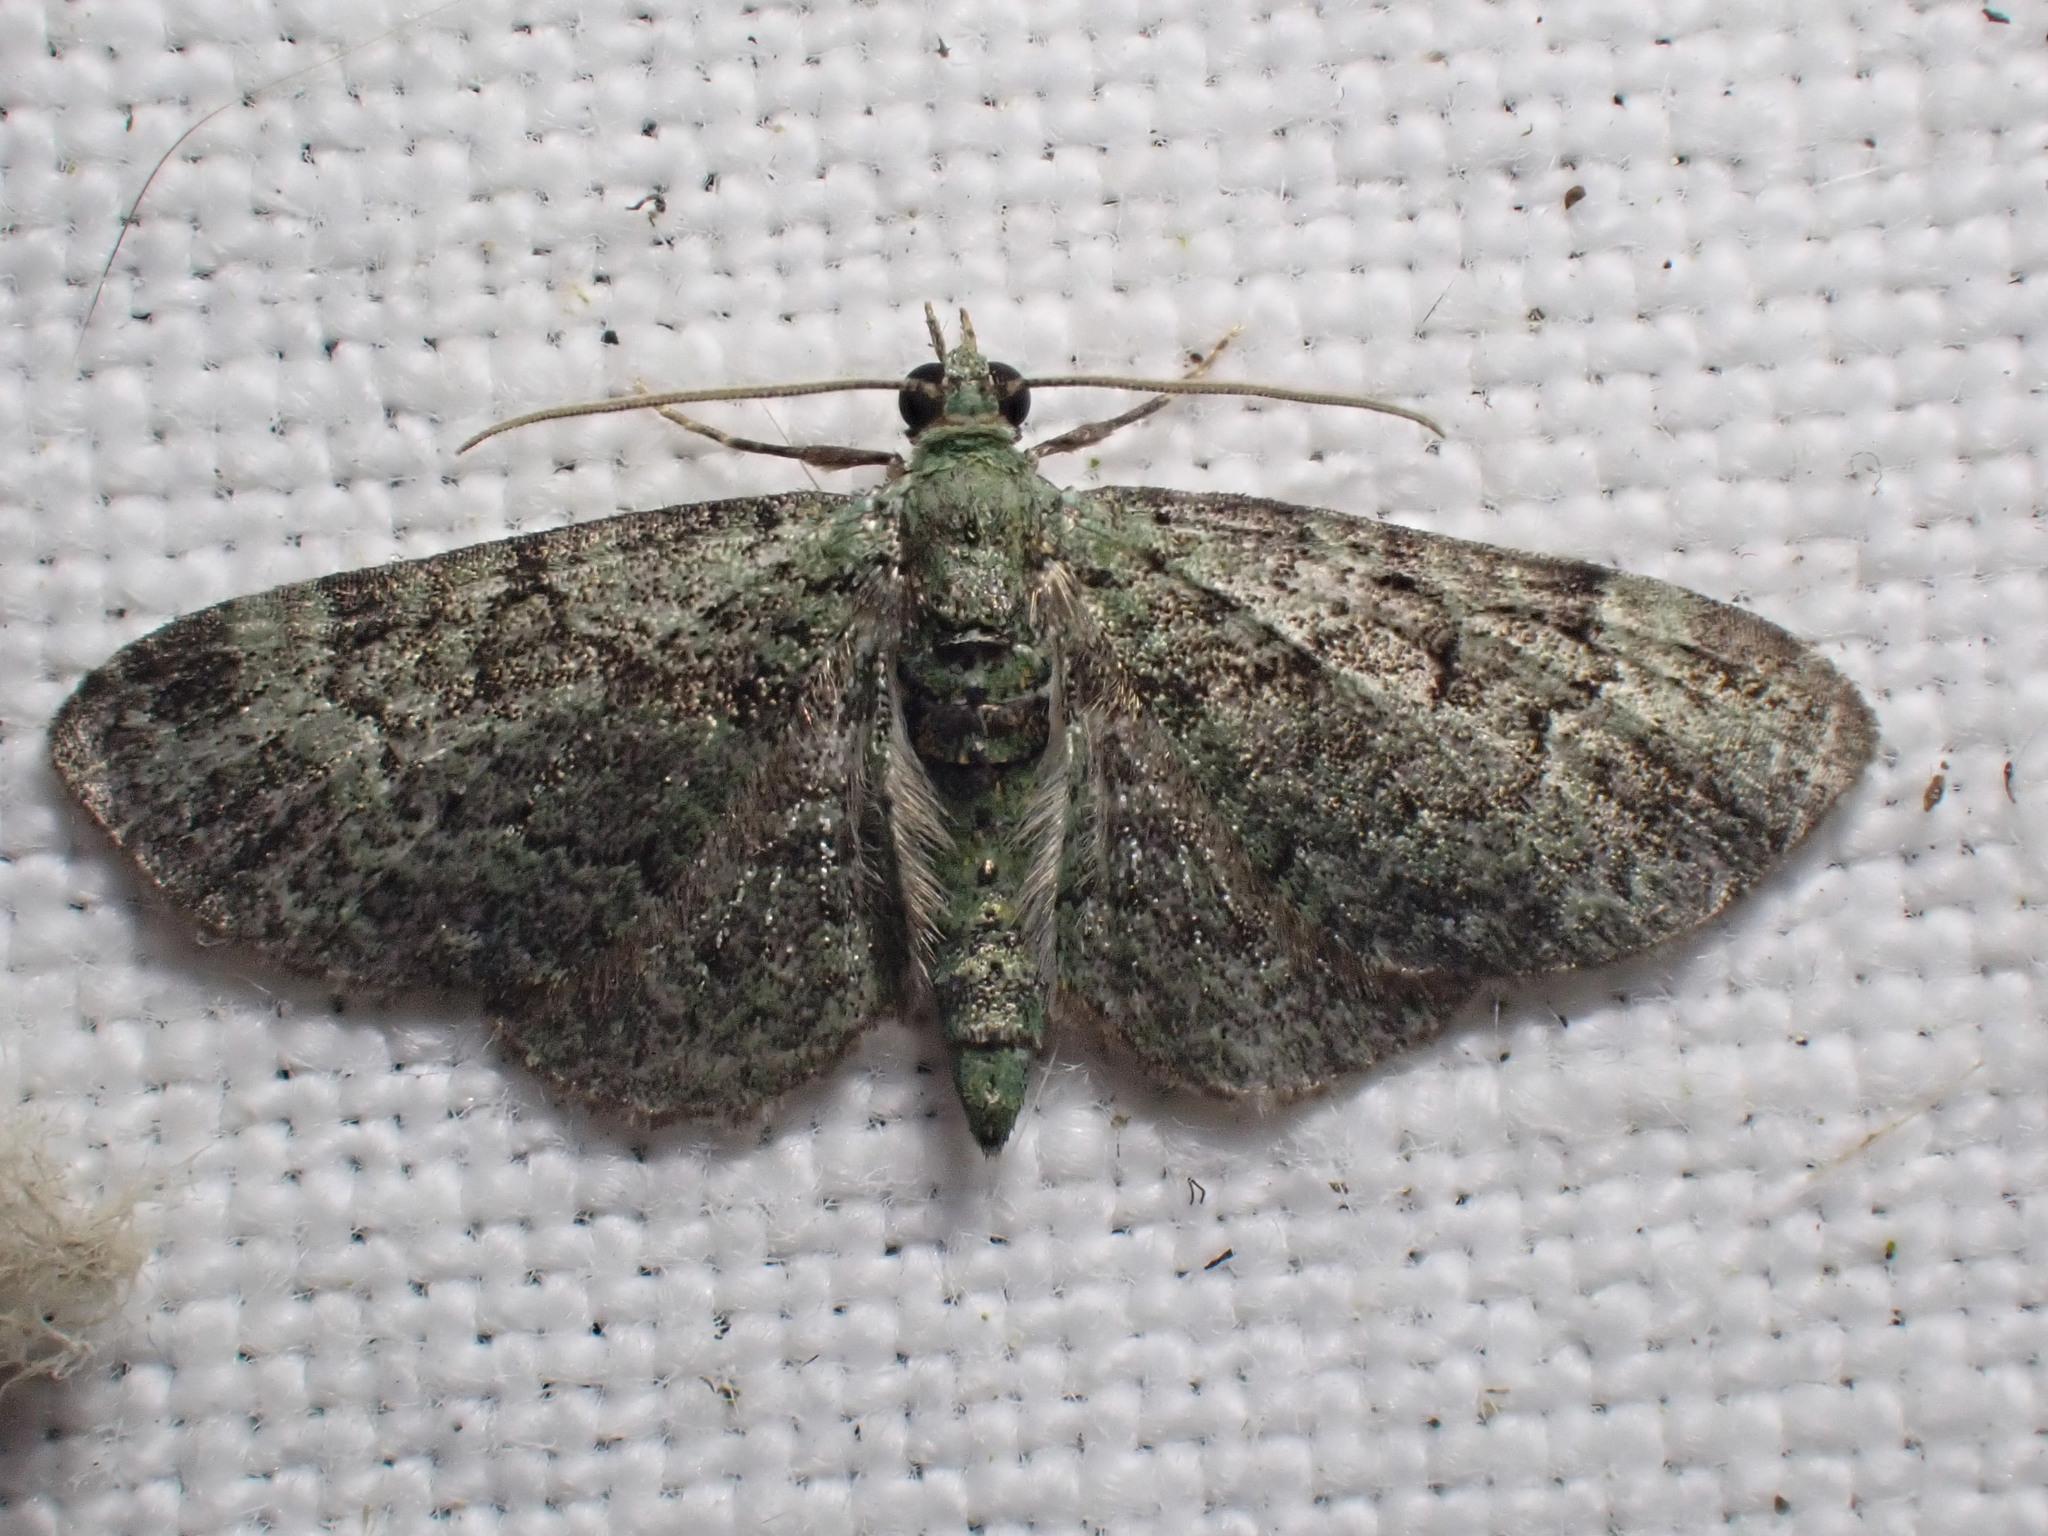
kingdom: Animalia
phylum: Arthropoda
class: Insecta
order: Lepidoptera
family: Geometridae
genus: Pasiphila
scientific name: Pasiphila rectangulata
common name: Green pug
